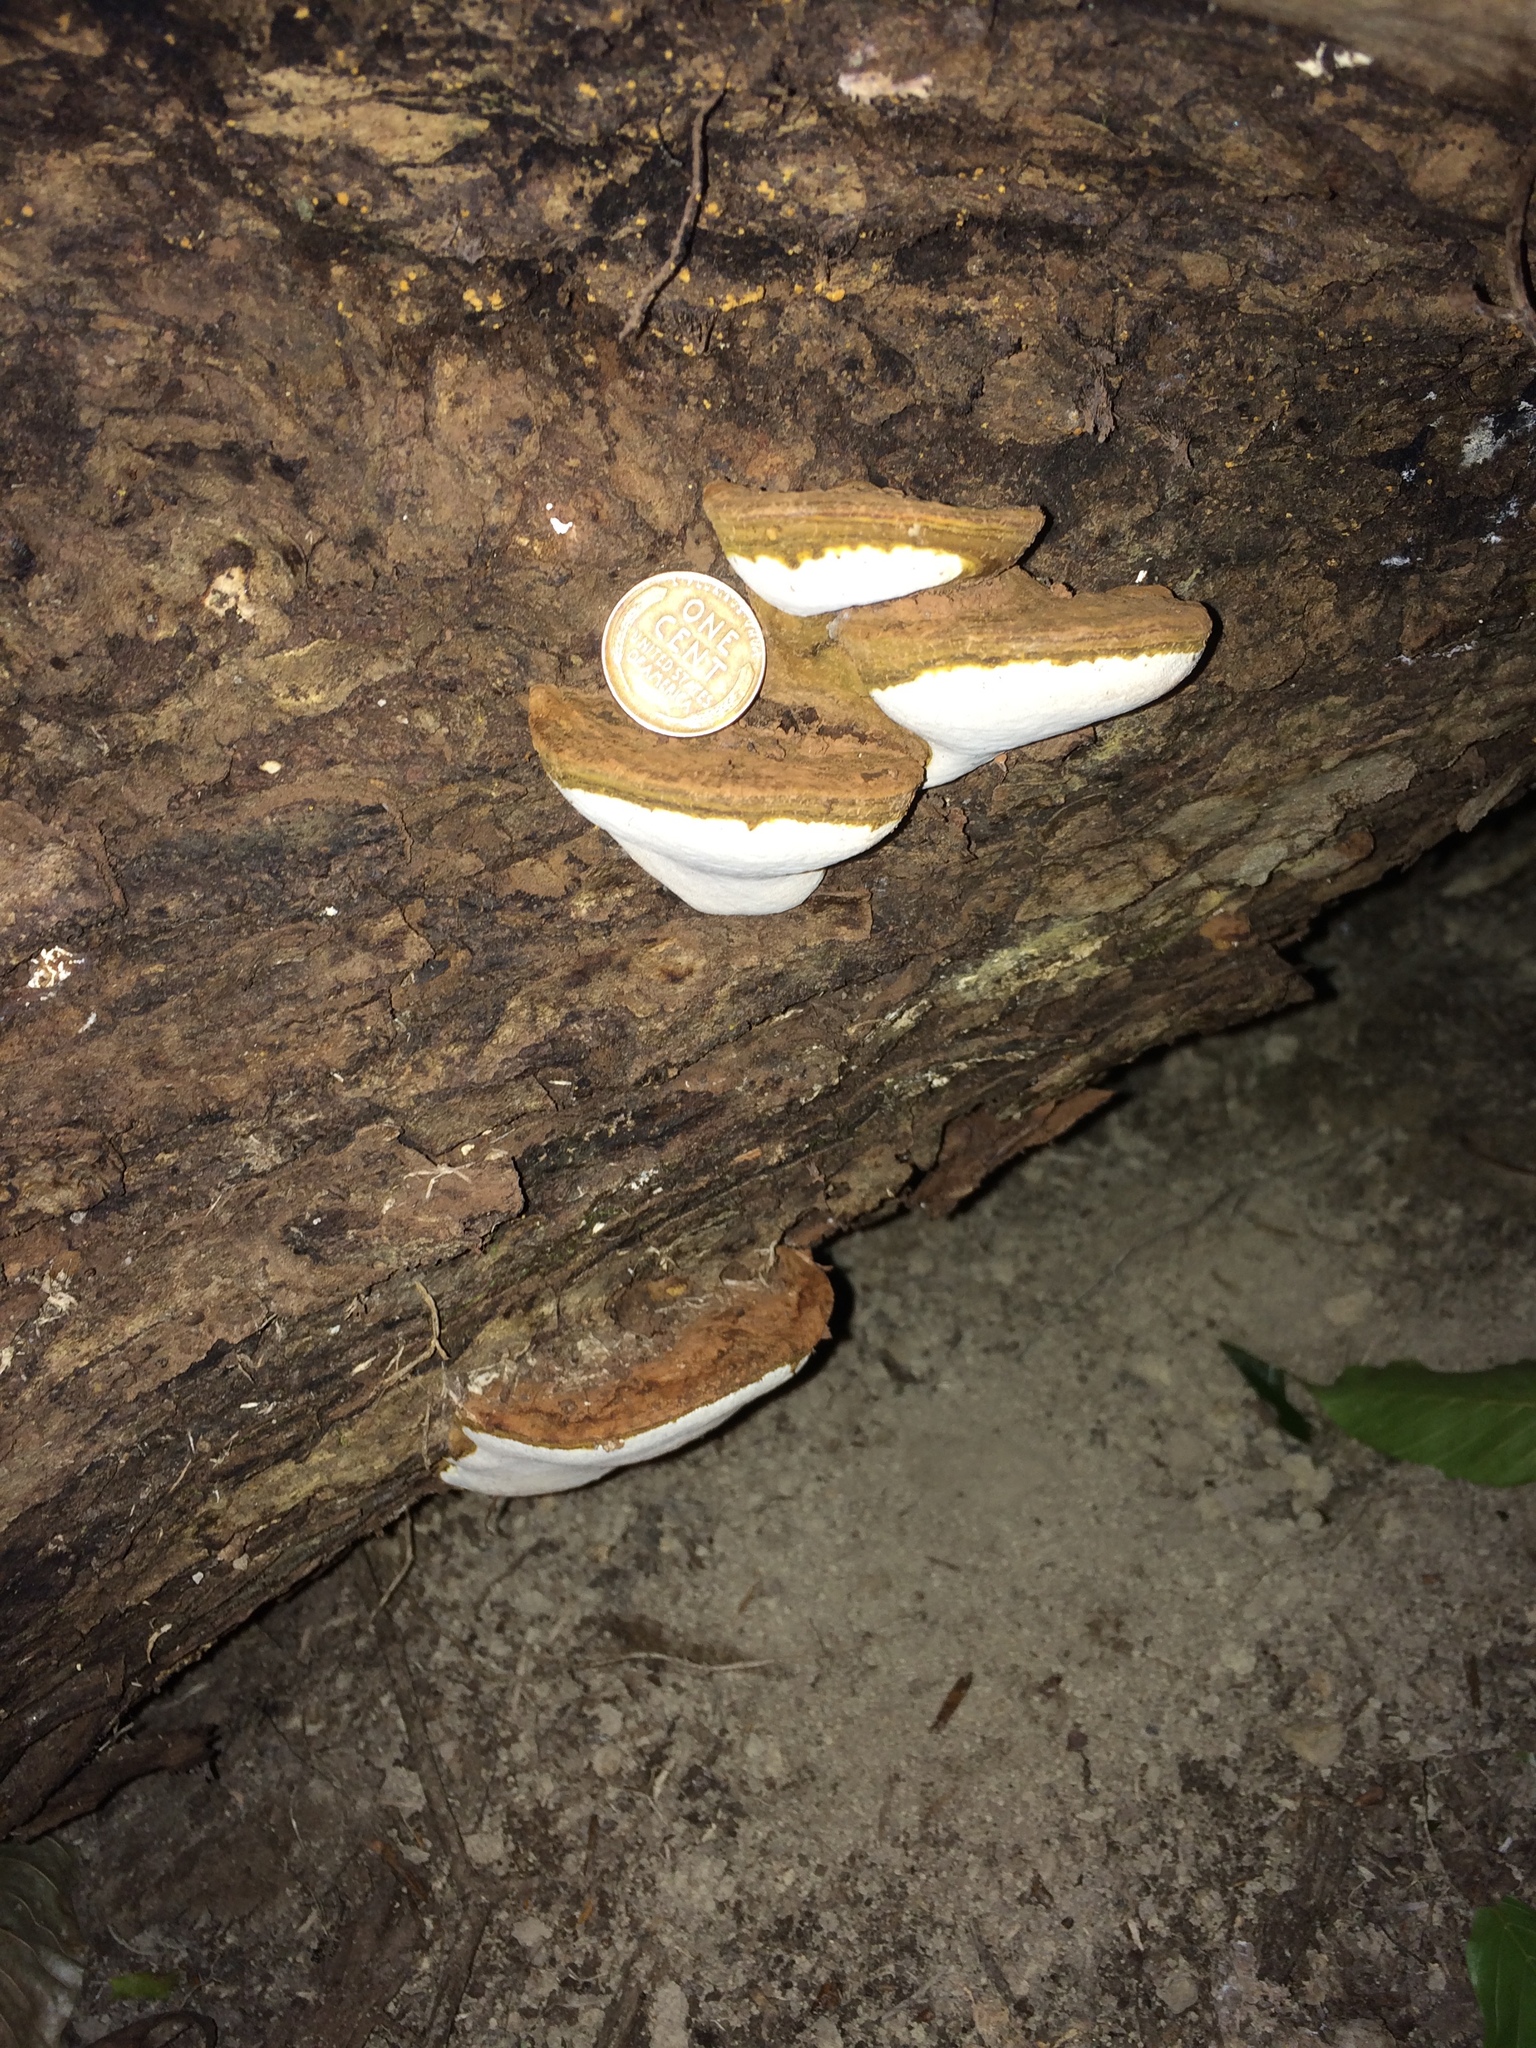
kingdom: Fungi
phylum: Basidiomycota
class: Agaricomycetes
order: Polyporales
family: Polyporaceae
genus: Ganoderma
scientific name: Ganoderma lobatum
